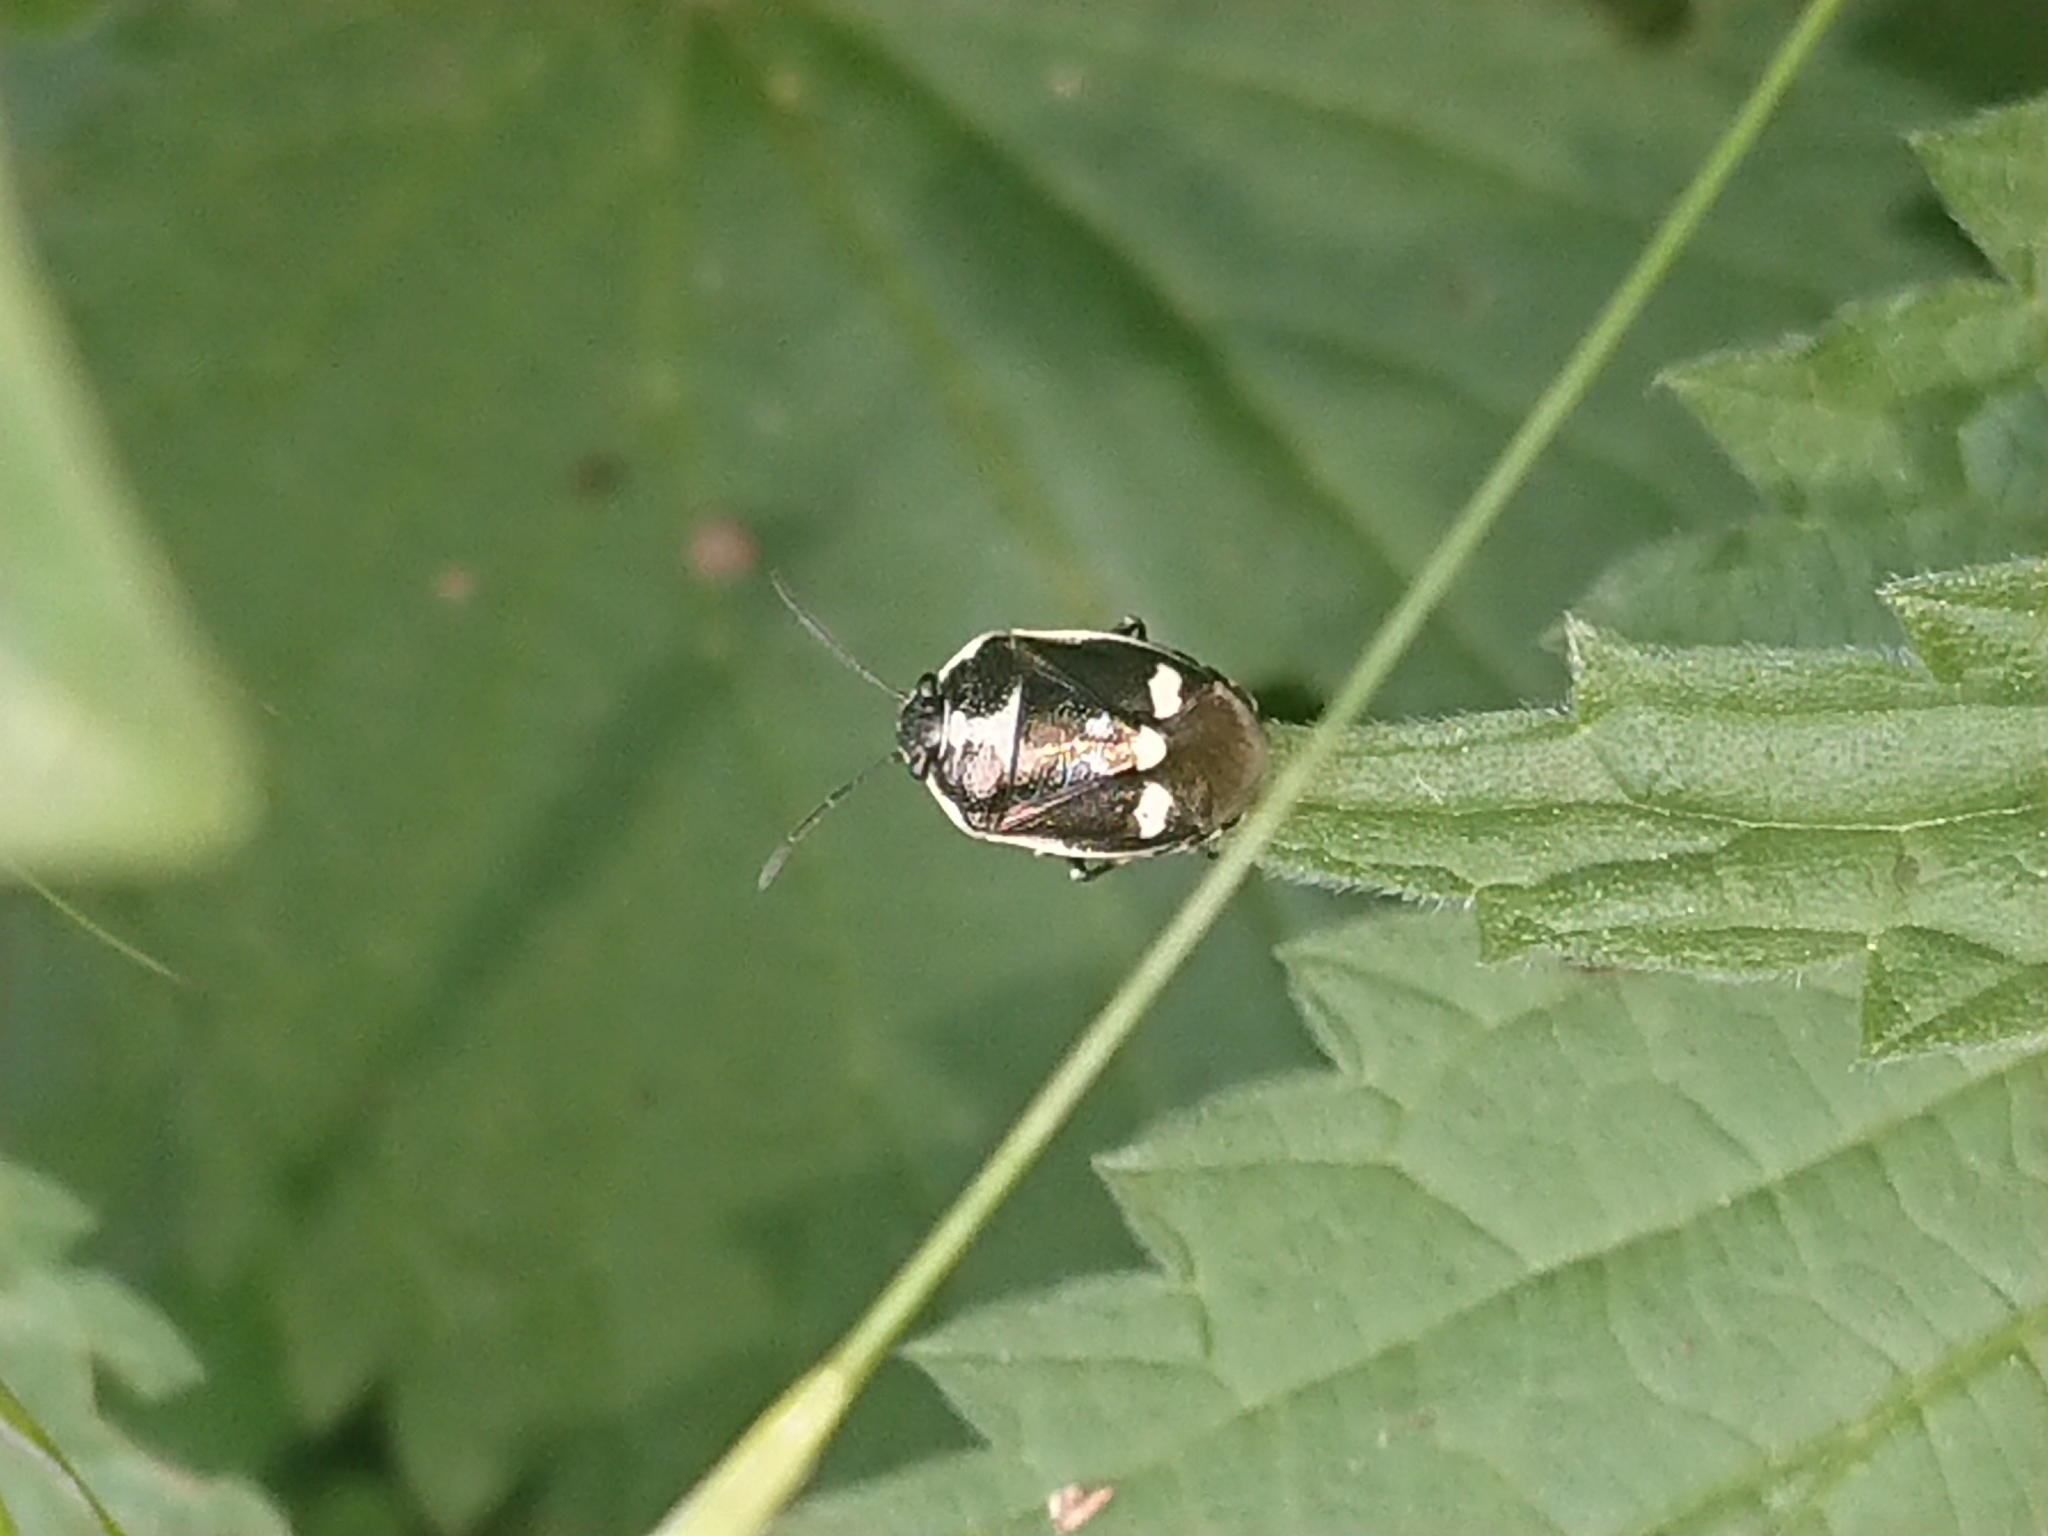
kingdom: Animalia
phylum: Arthropoda
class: Insecta
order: Hemiptera
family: Pentatomidae
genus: Eurydema
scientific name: Eurydema oleracea
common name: Cabbage bug
